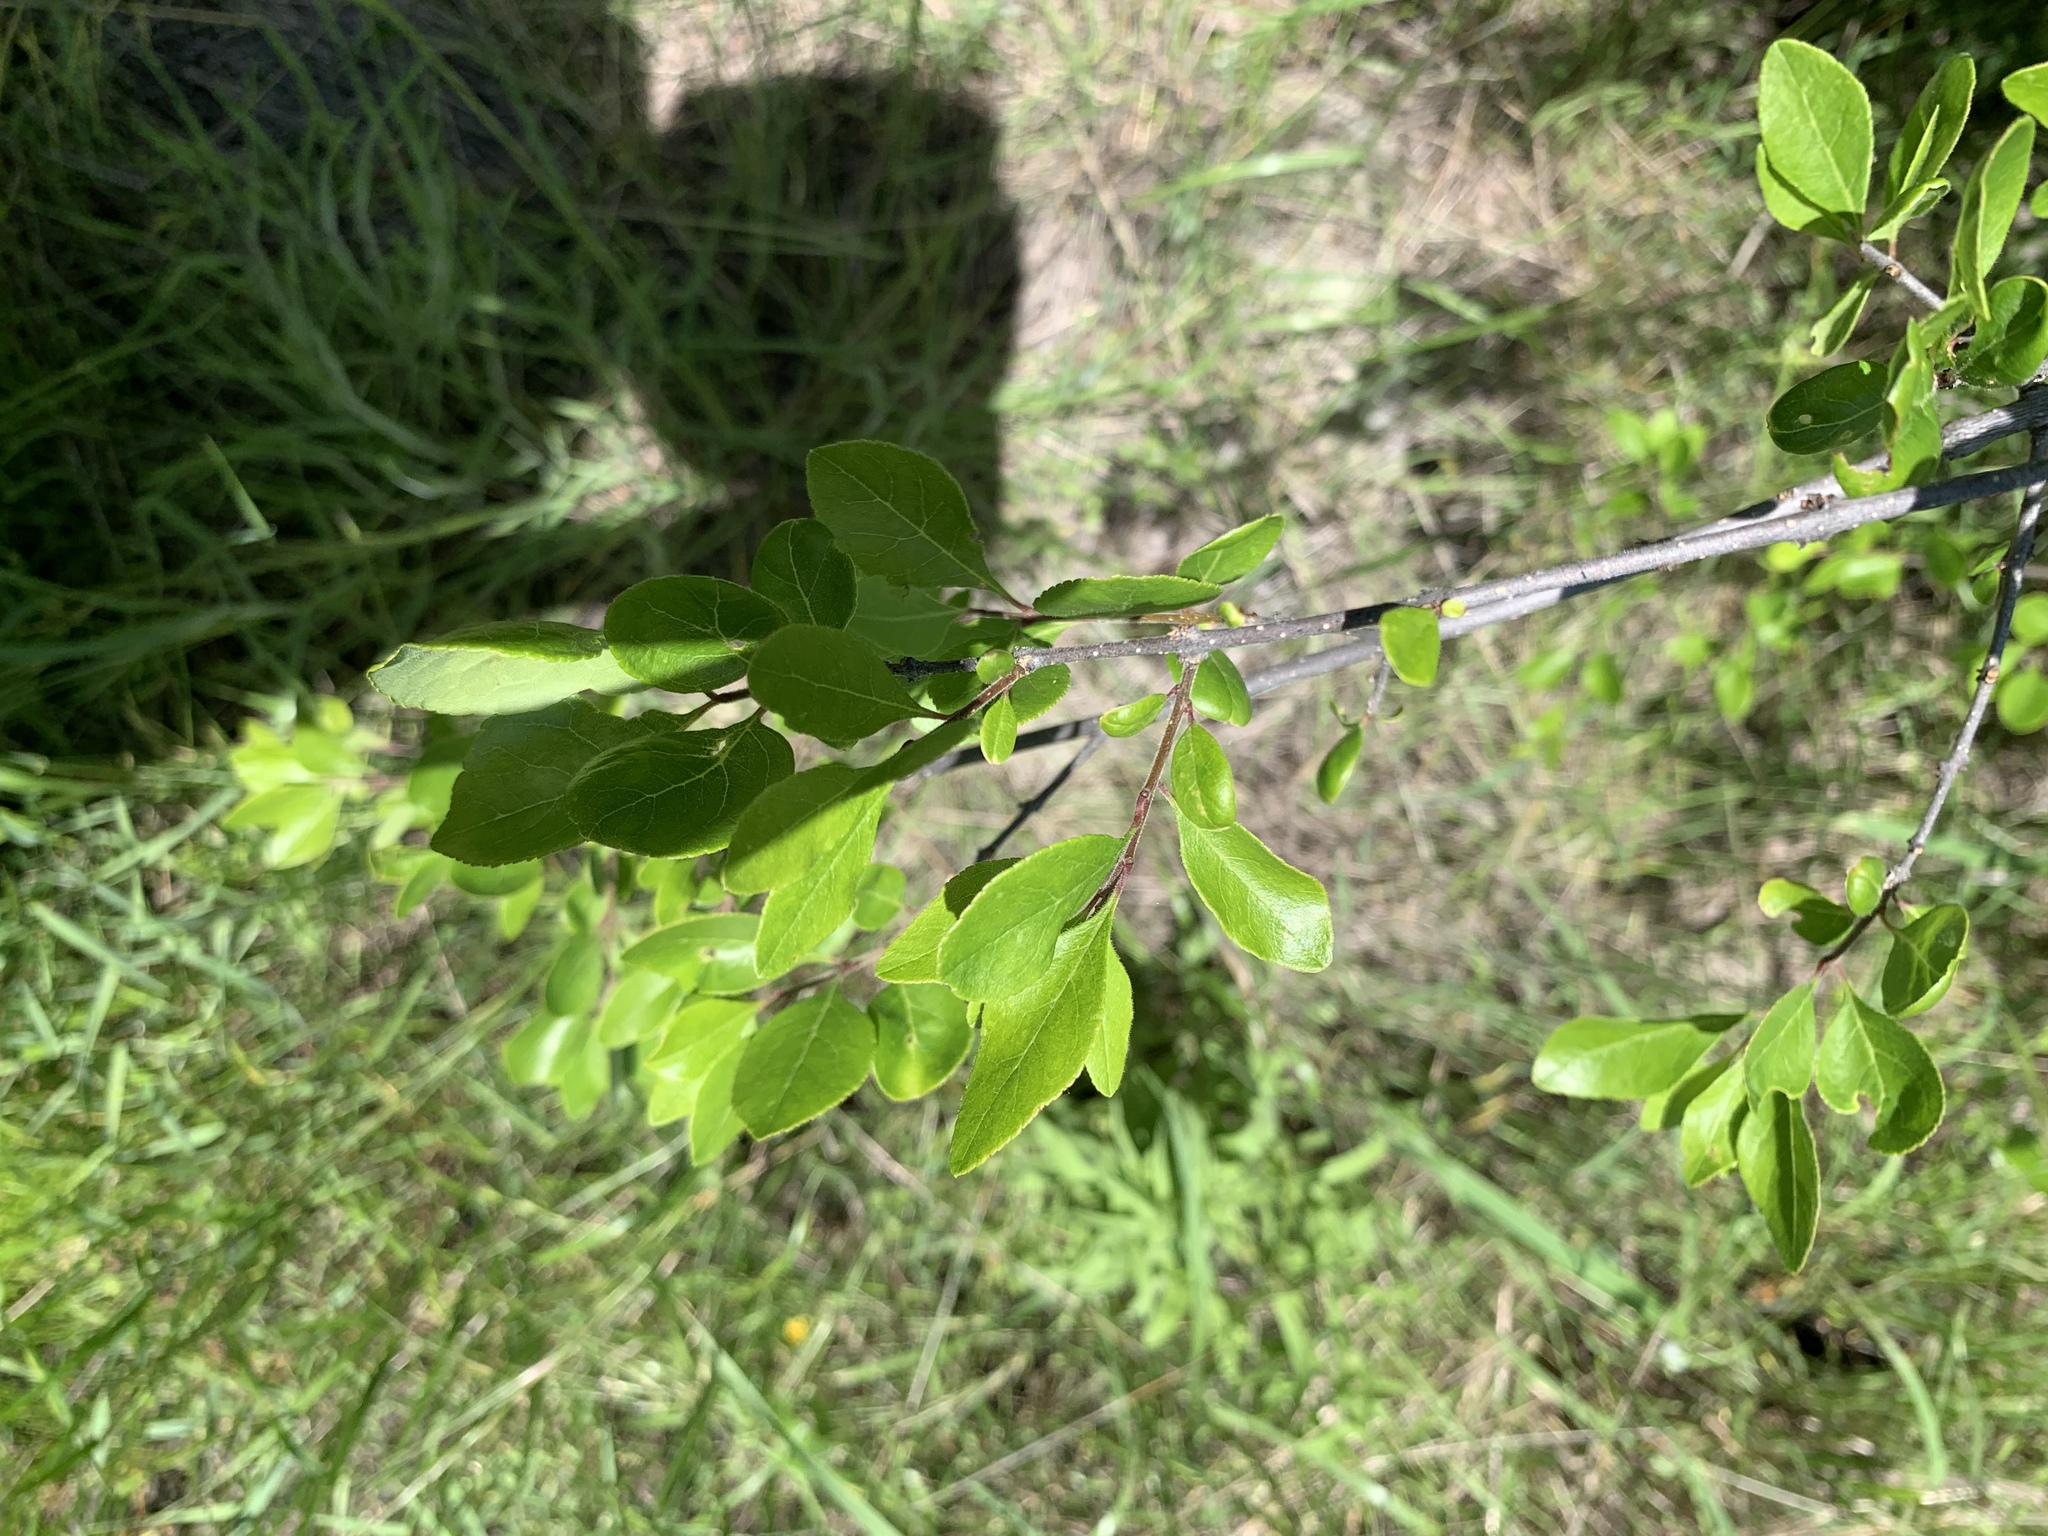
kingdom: Plantae
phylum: Tracheophyta
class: Magnoliopsida
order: Rosales
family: Rosaceae
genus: Prunus
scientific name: Prunus angustifolia
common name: Cherokee plum
